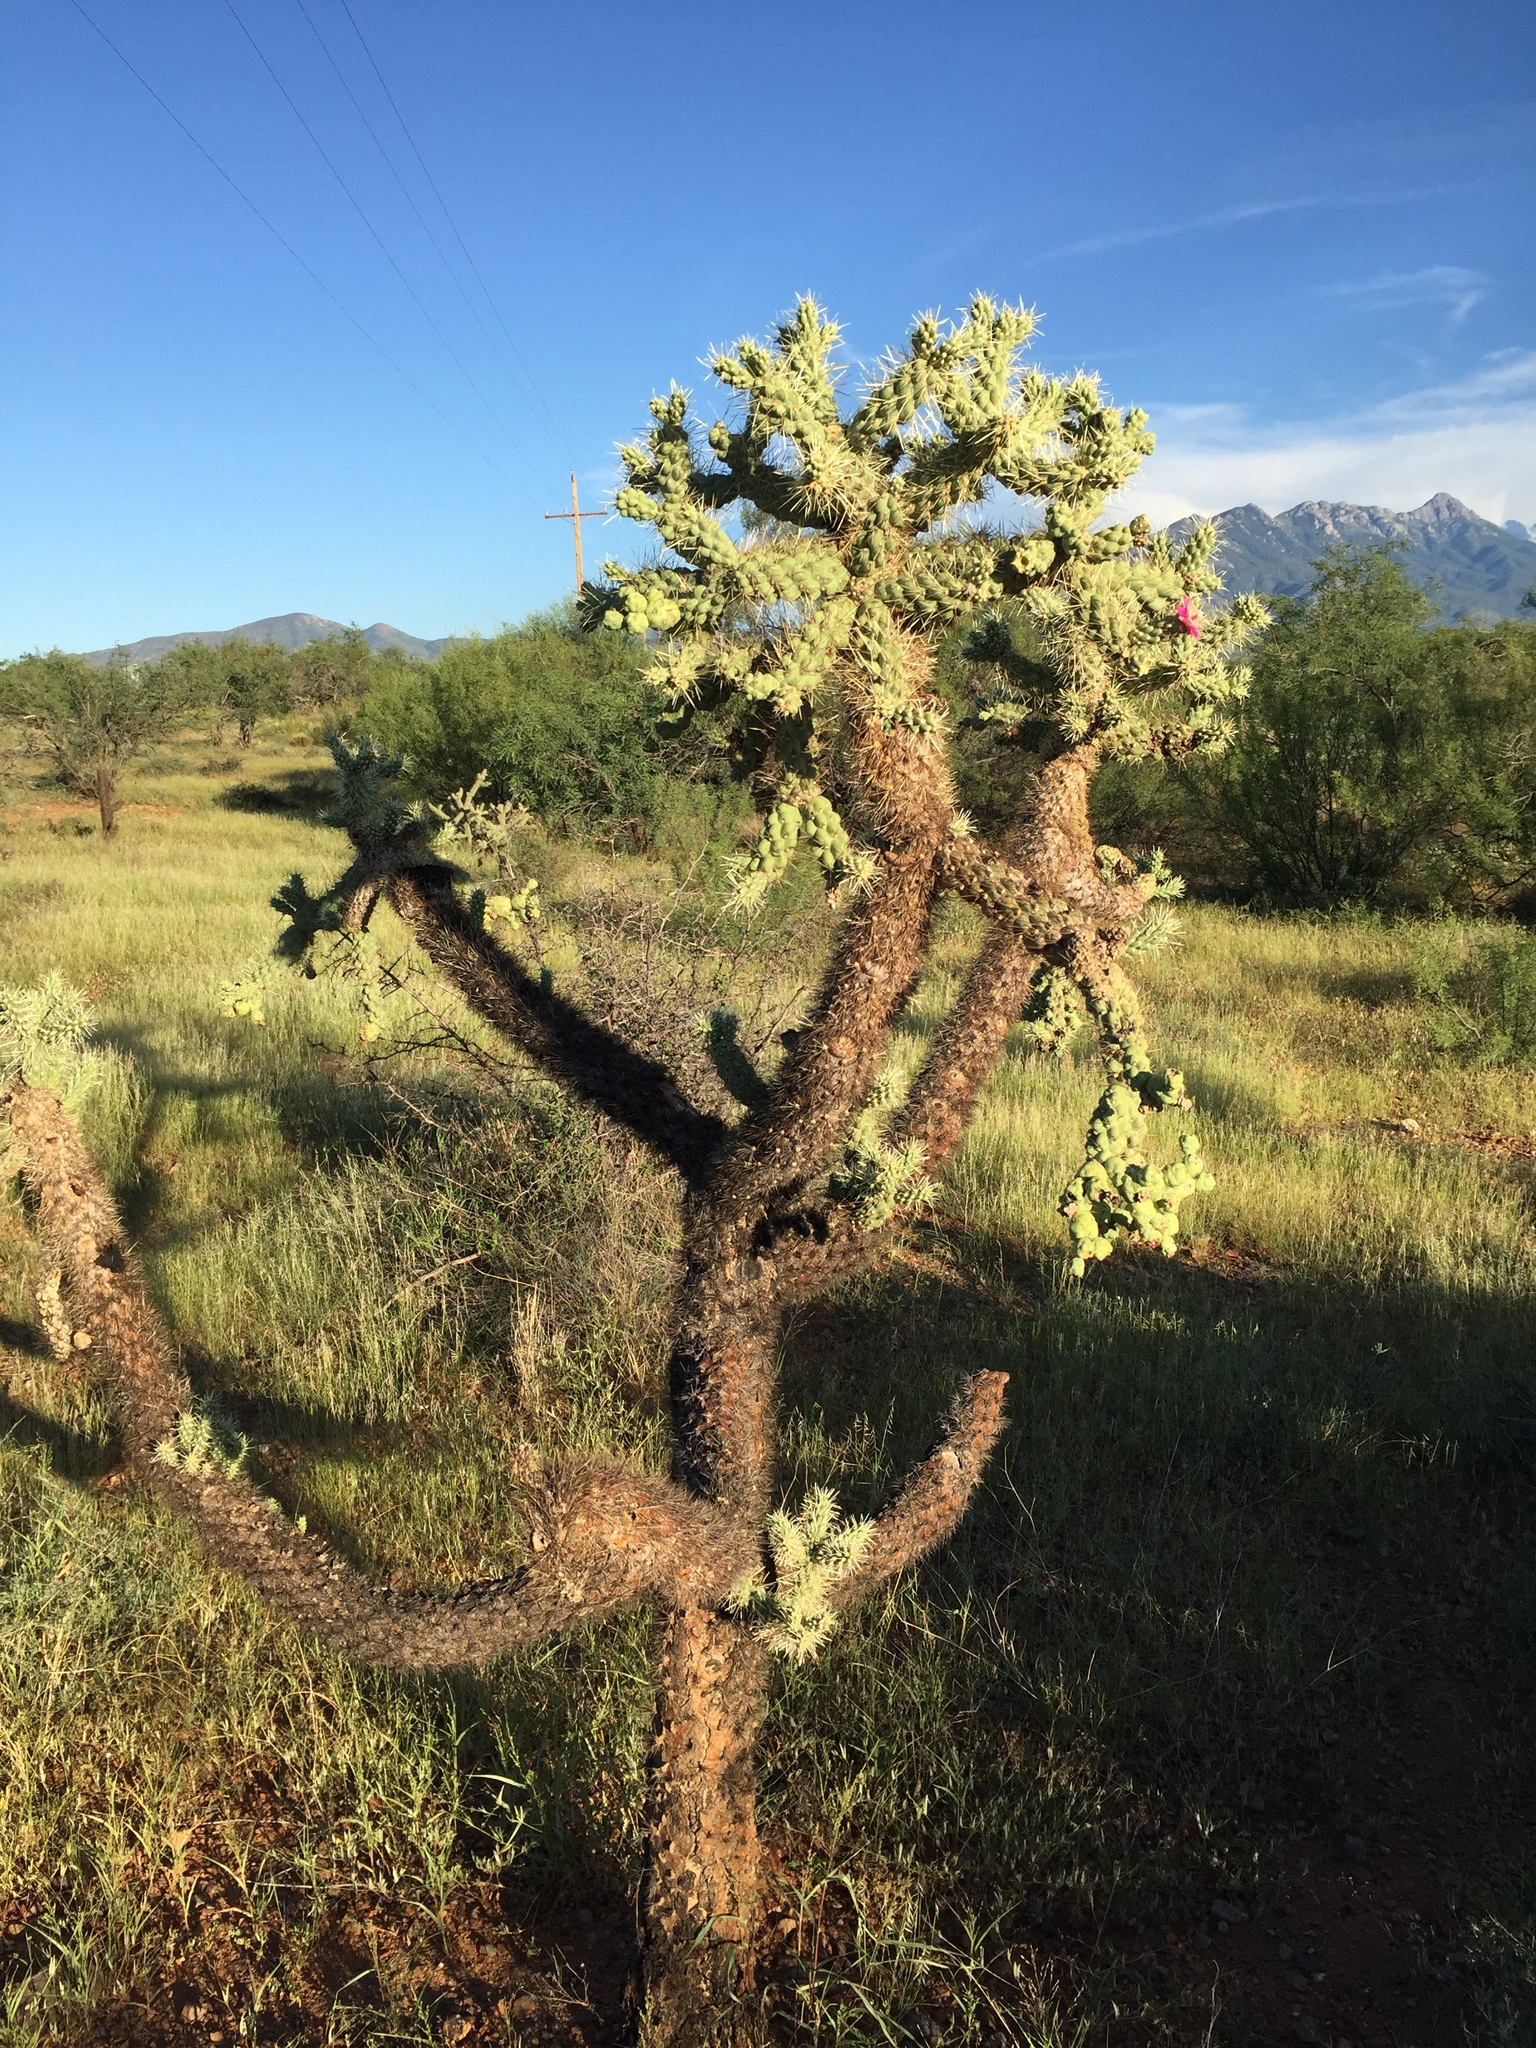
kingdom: Plantae
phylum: Tracheophyta
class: Magnoliopsida
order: Caryophyllales
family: Cactaceae
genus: Cylindropuntia
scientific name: Cylindropuntia fulgida
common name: Jumping cholla
